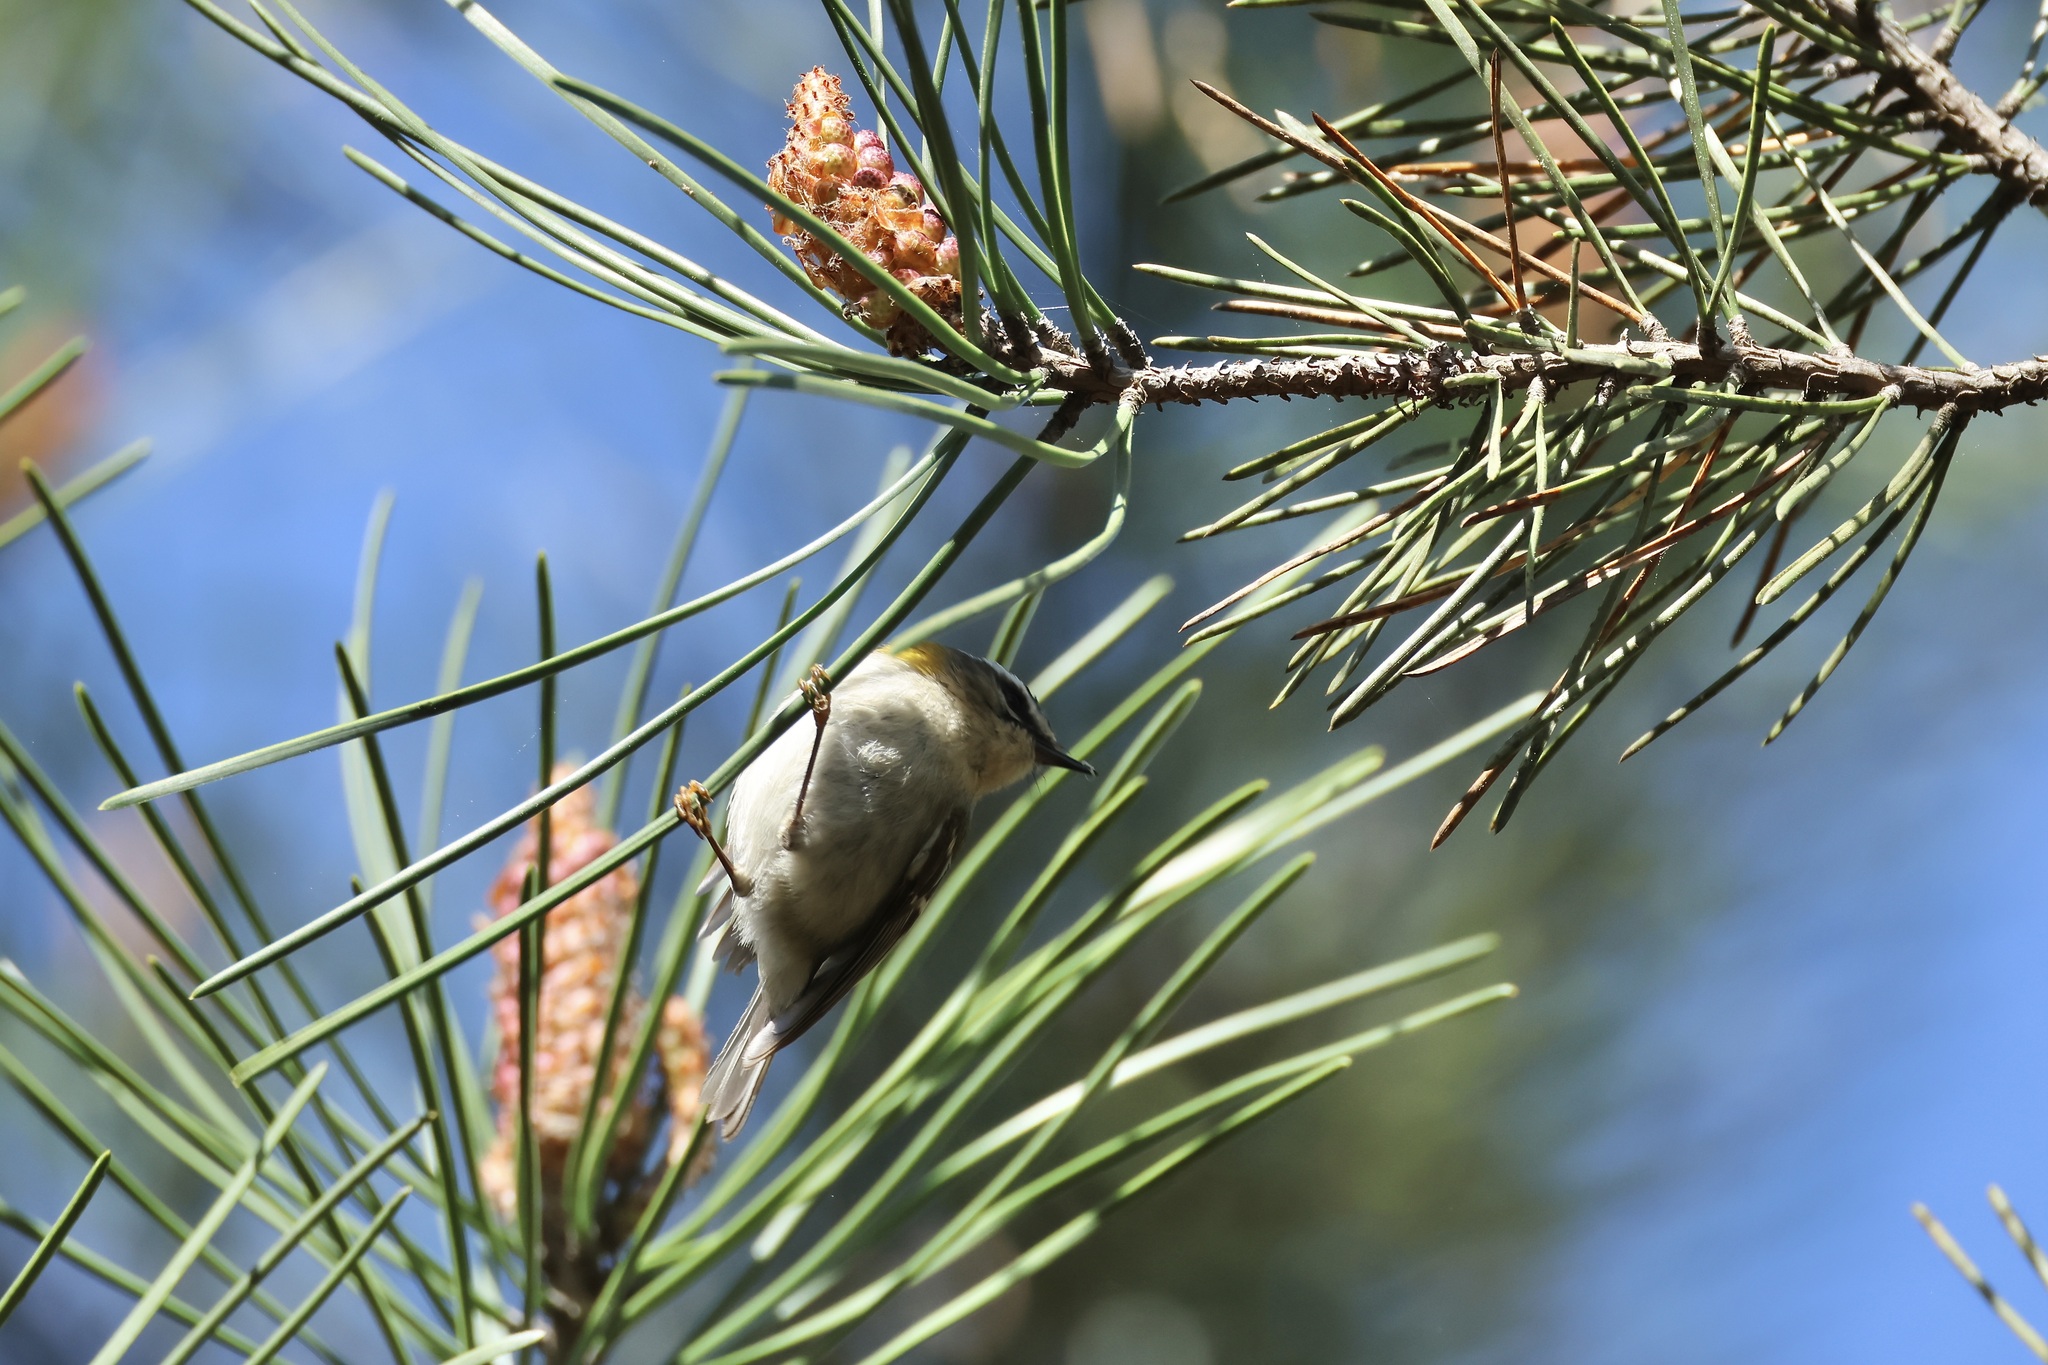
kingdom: Animalia
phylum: Chordata
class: Aves
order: Passeriformes
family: Regulidae
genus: Regulus
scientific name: Regulus ignicapilla
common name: Firecrest
